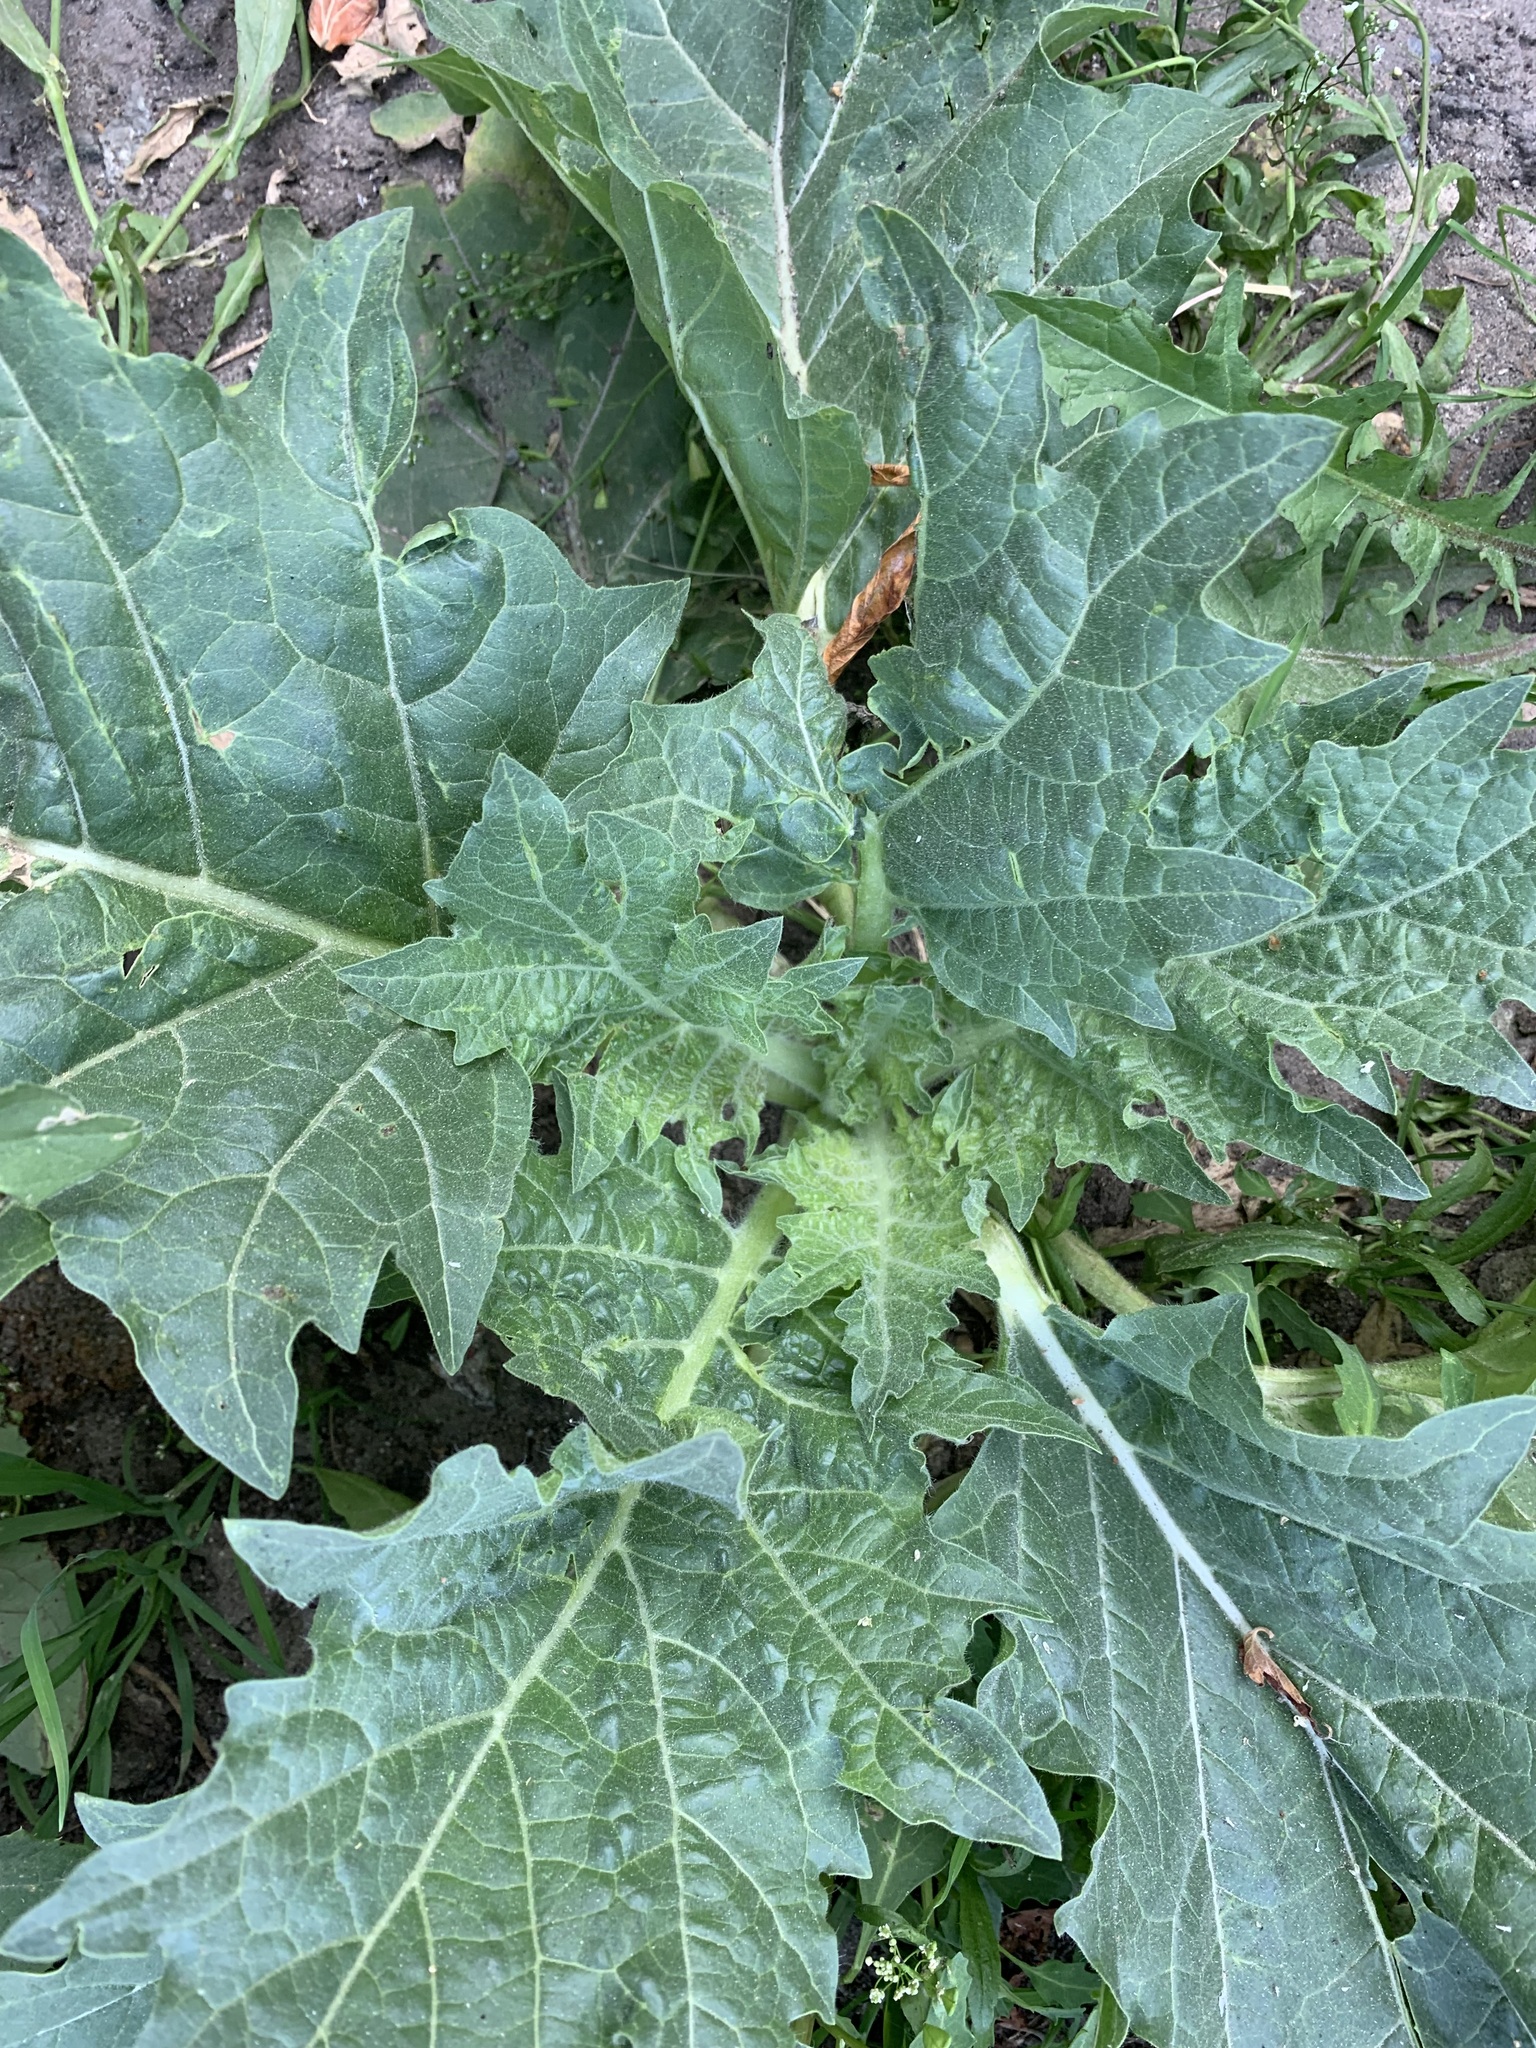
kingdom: Plantae
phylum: Tracheophyta
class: Magnoliopsida
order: Solanales
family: Solanaceae
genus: Hyoscyamus
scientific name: Hyoscyamus niger
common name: Henbane
